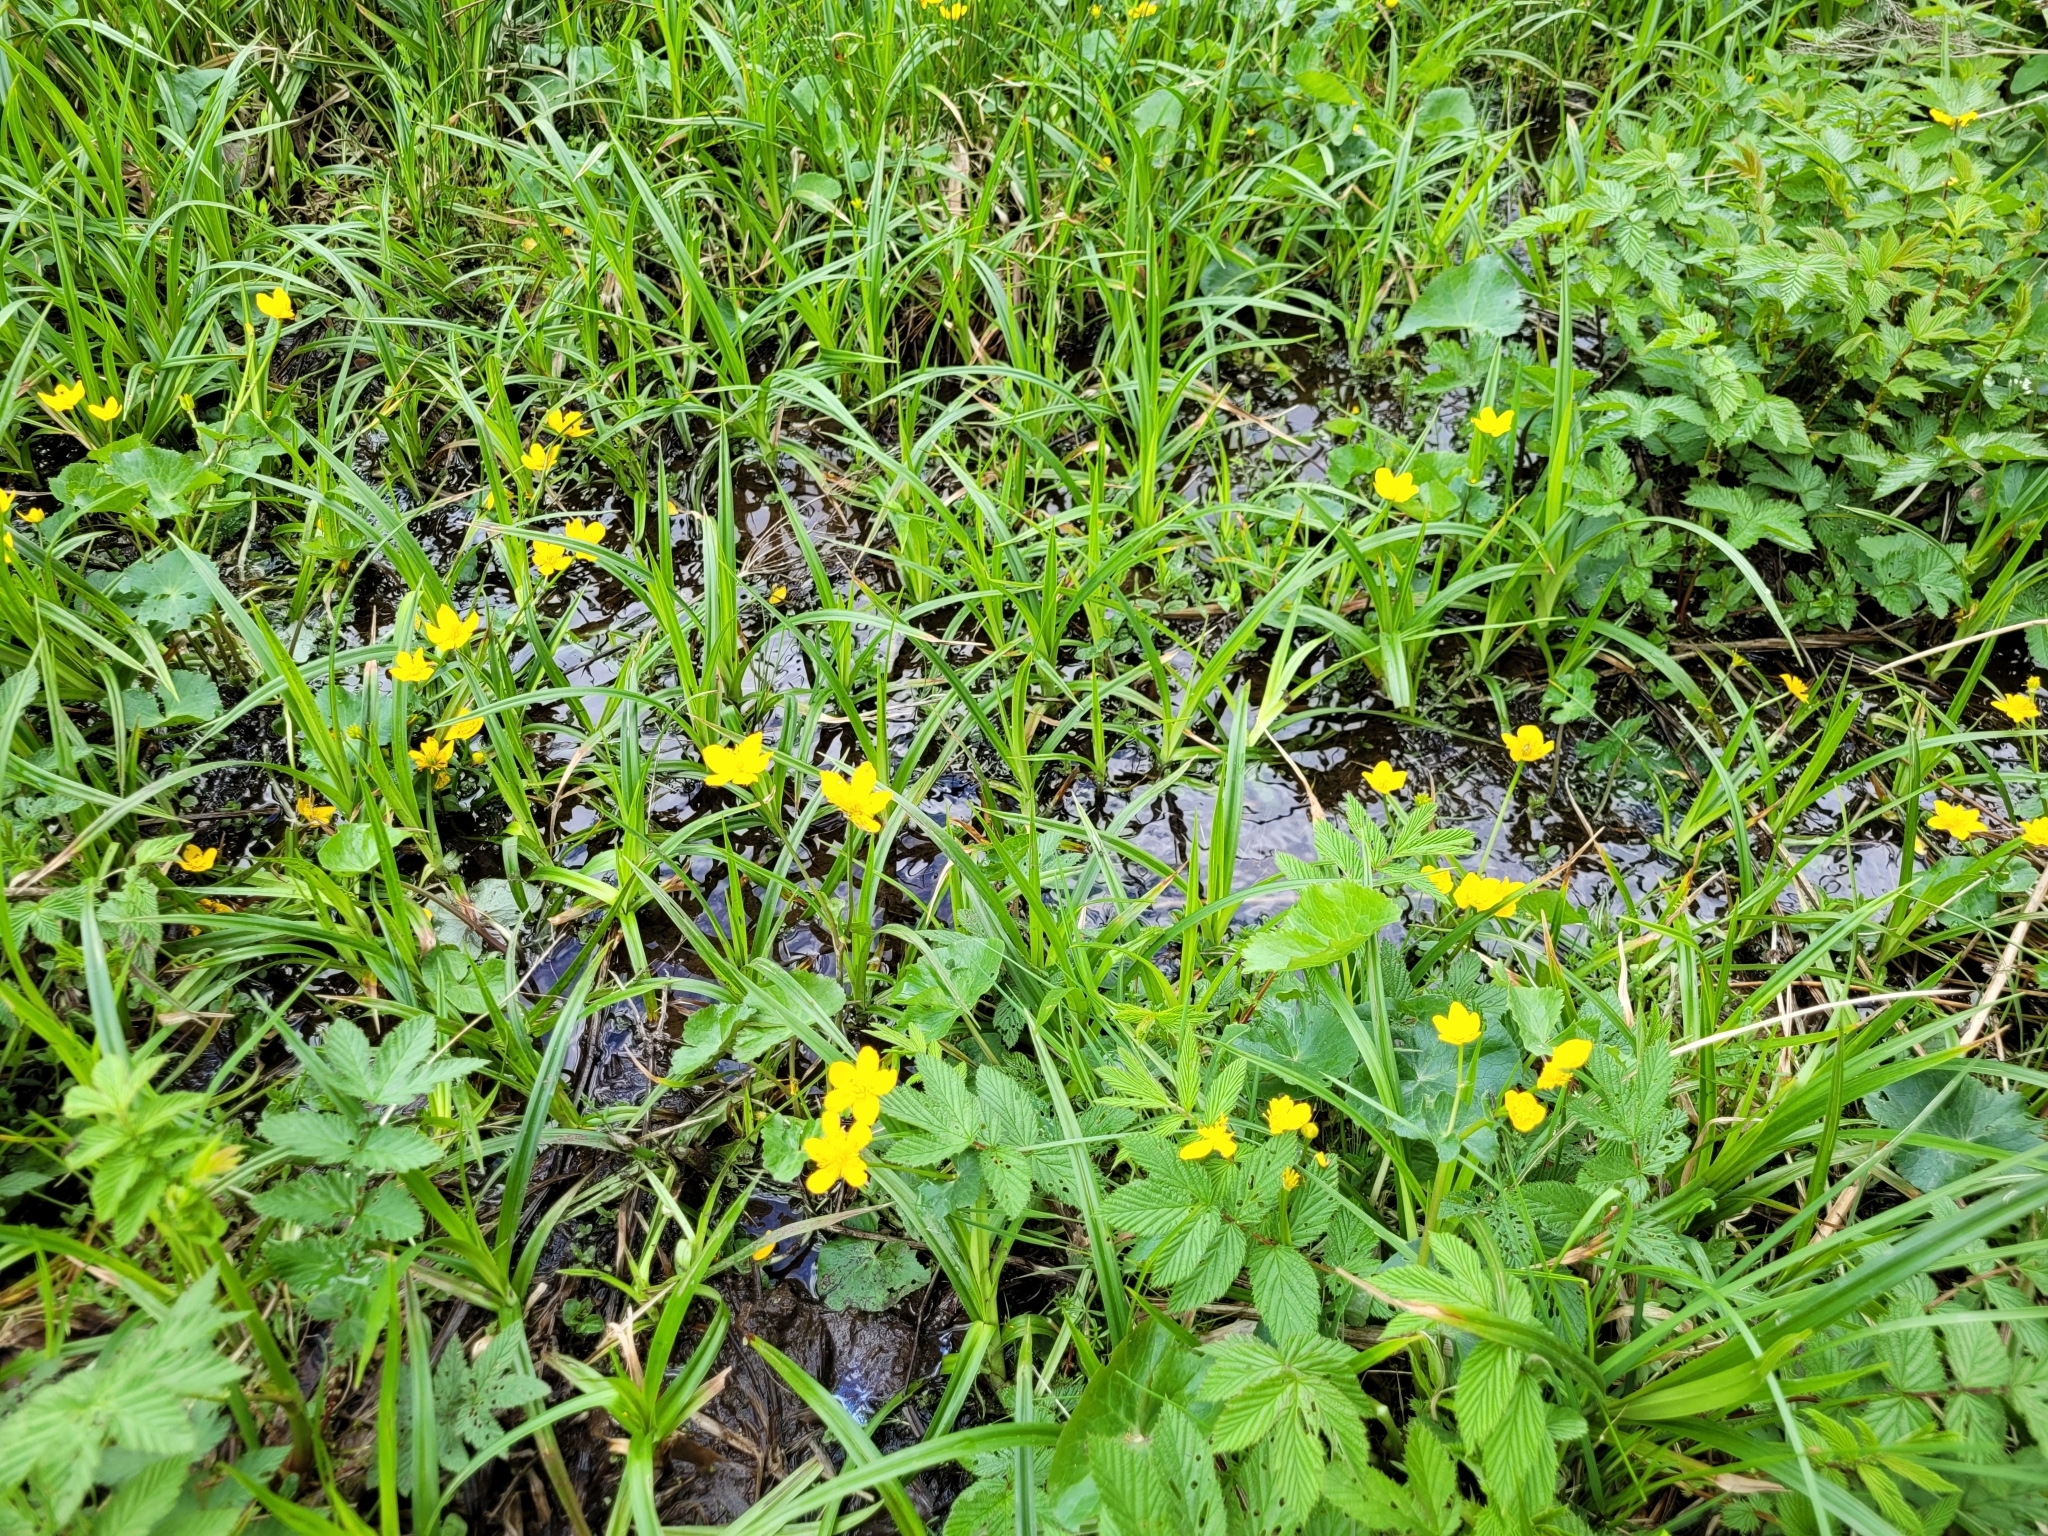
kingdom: Plantae
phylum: Tracheophyta
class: Magnoliopsida
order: Ranunculales
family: Ranunculaceae
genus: Caltha
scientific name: Caltha palustris
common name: Marsh marigold
